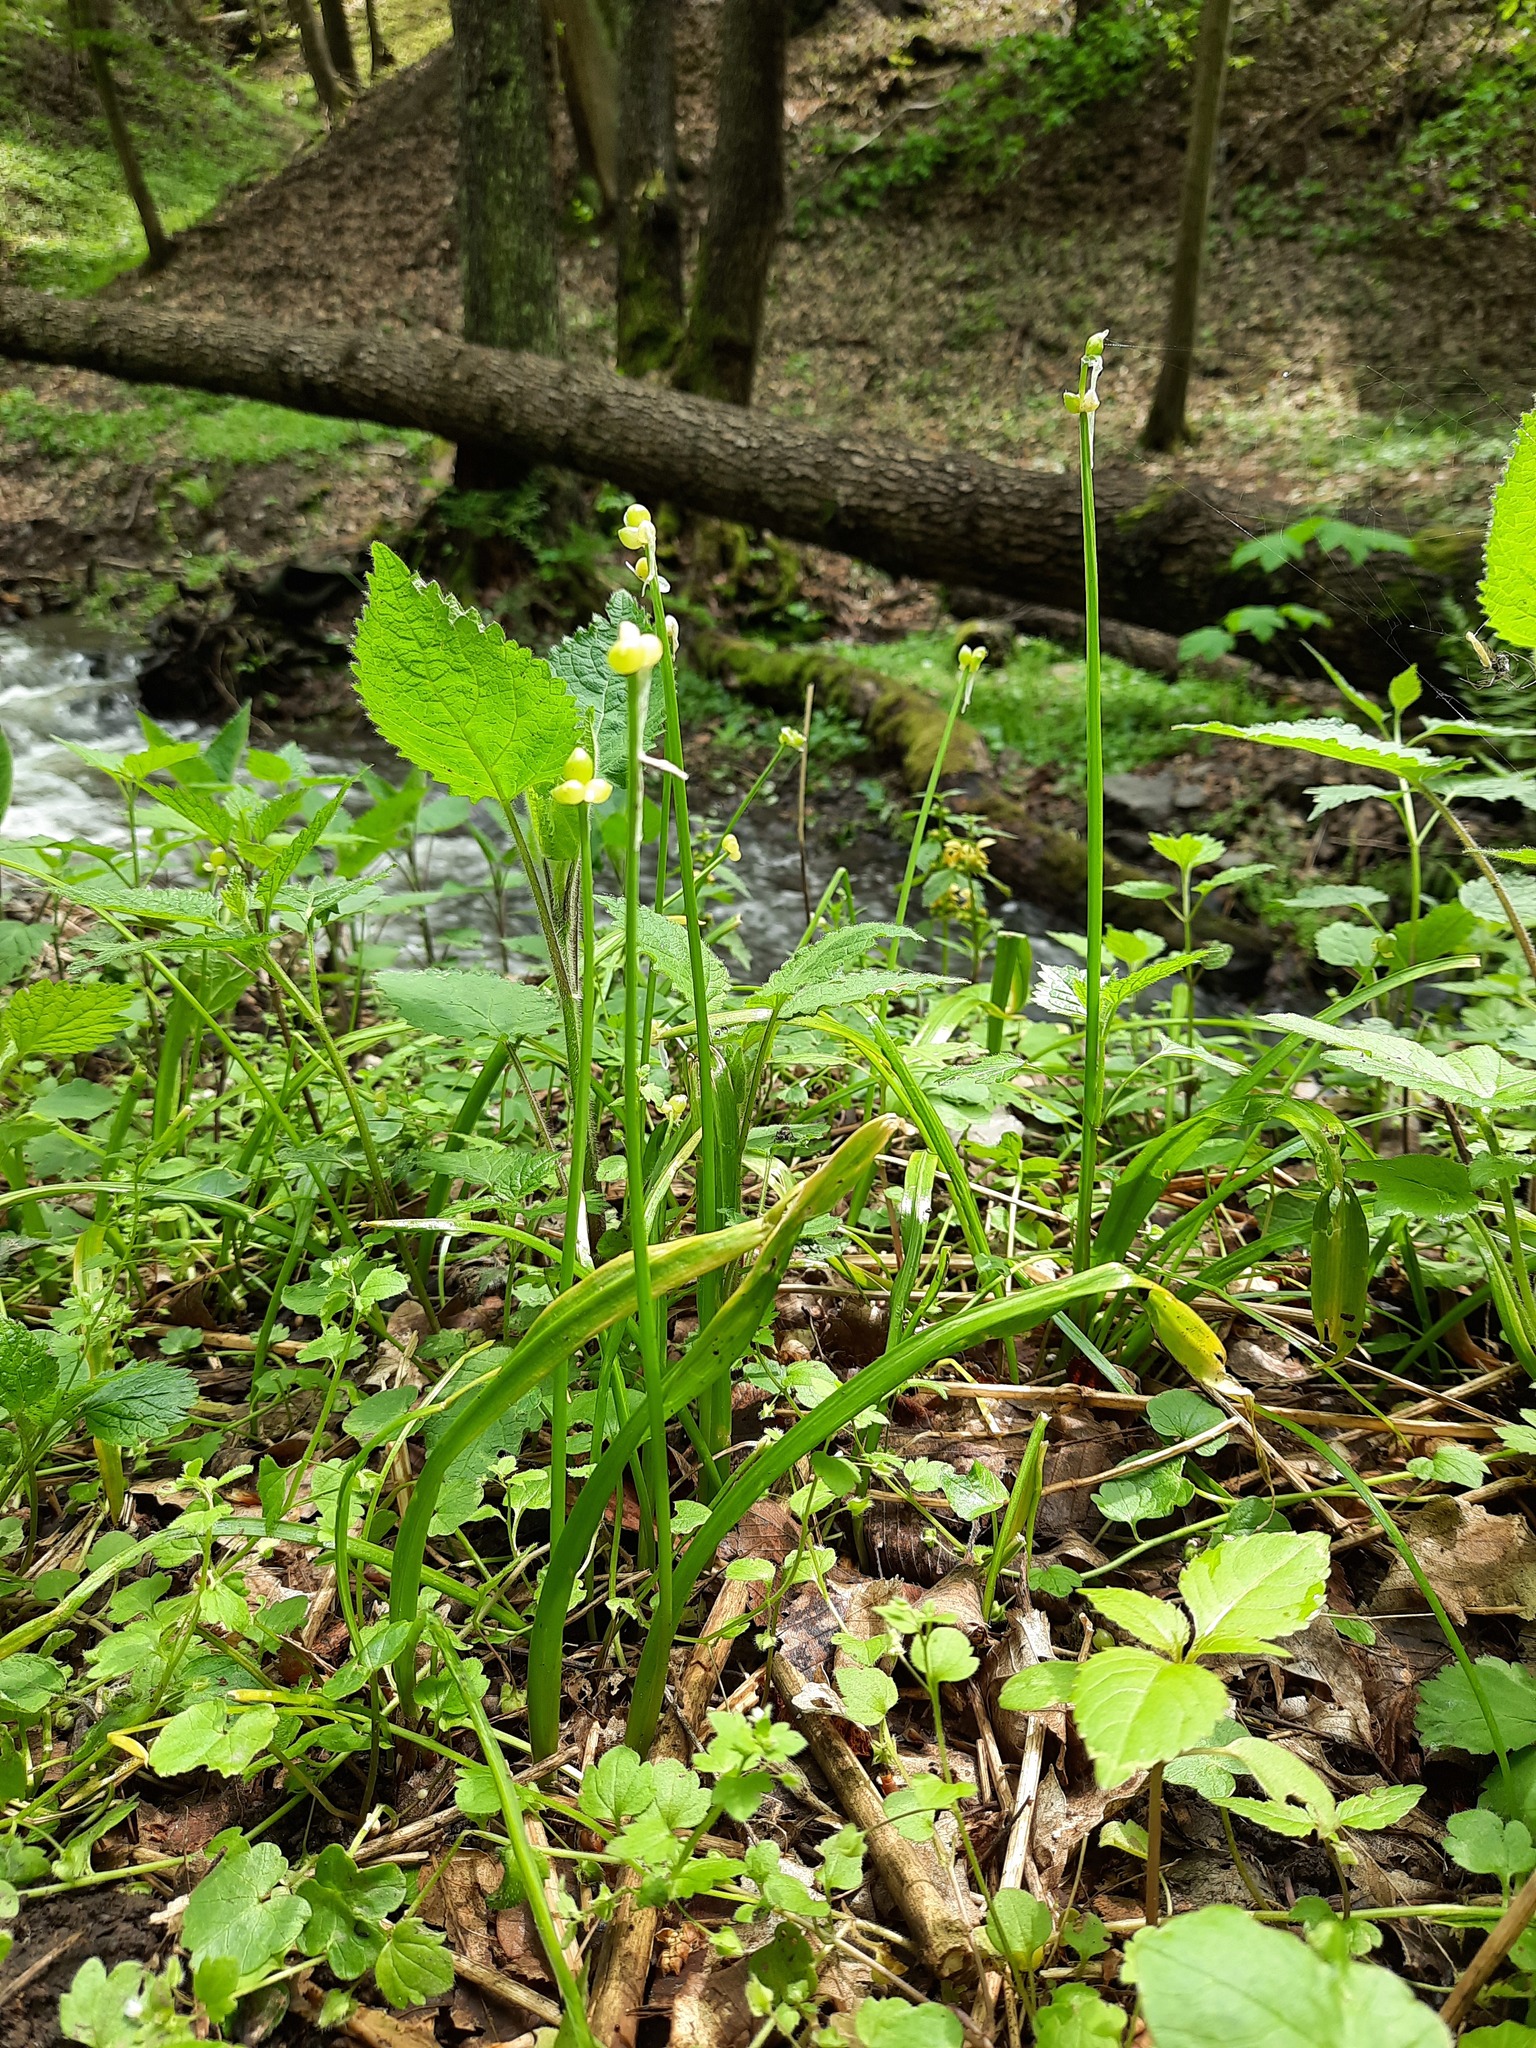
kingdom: Plantae
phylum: Tracheophyta
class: Liliopsida
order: Asparagales
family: Amaryllidaceae
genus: Allium
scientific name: Allium paradoxum
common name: Few-flowered garlic
